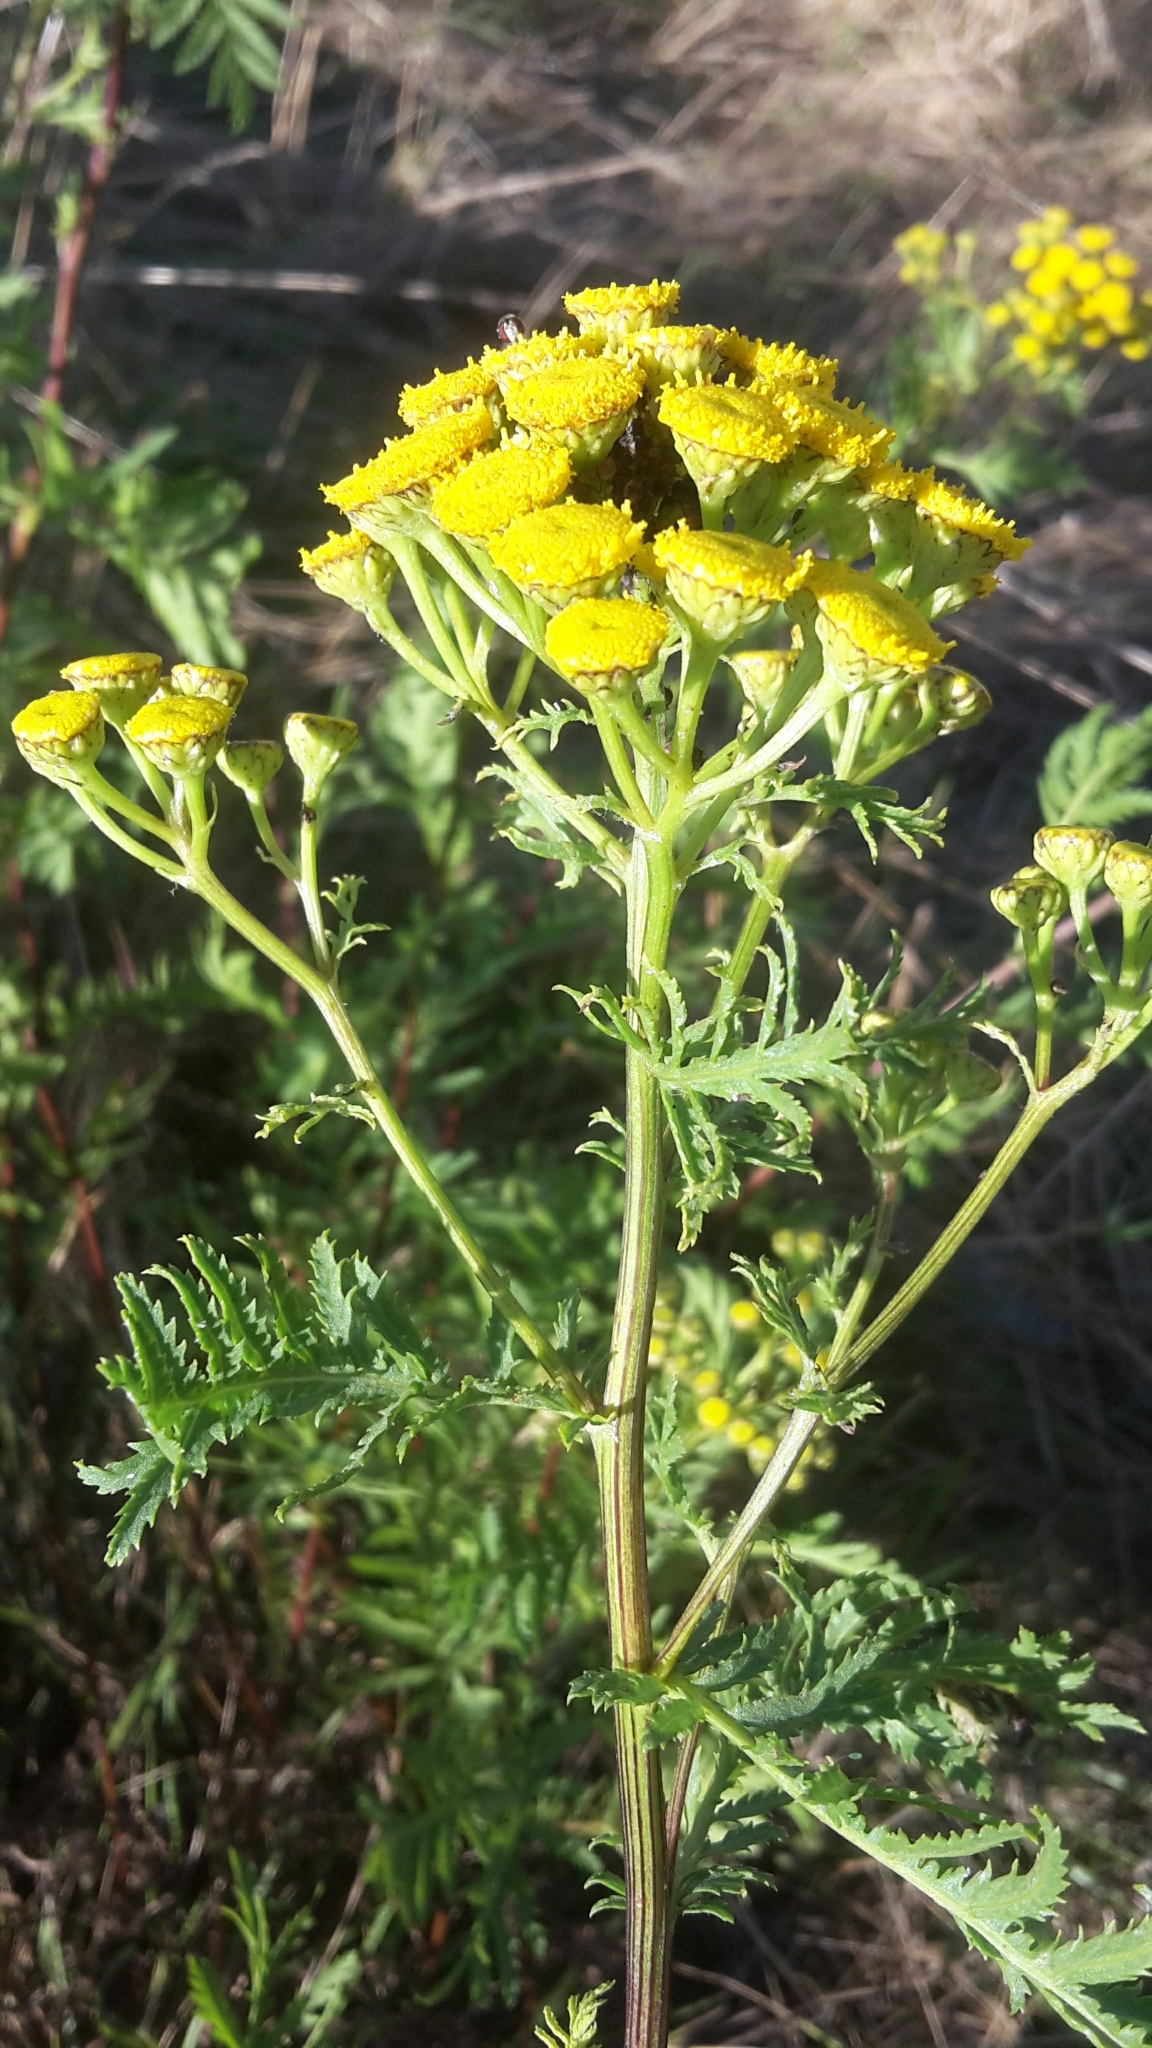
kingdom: Plantae
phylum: Tracheophyta
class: Magnoliopsida
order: Asterales
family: Asteraceae
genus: Tanacetum
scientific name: Tanacetum vulgare
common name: Common tansy
